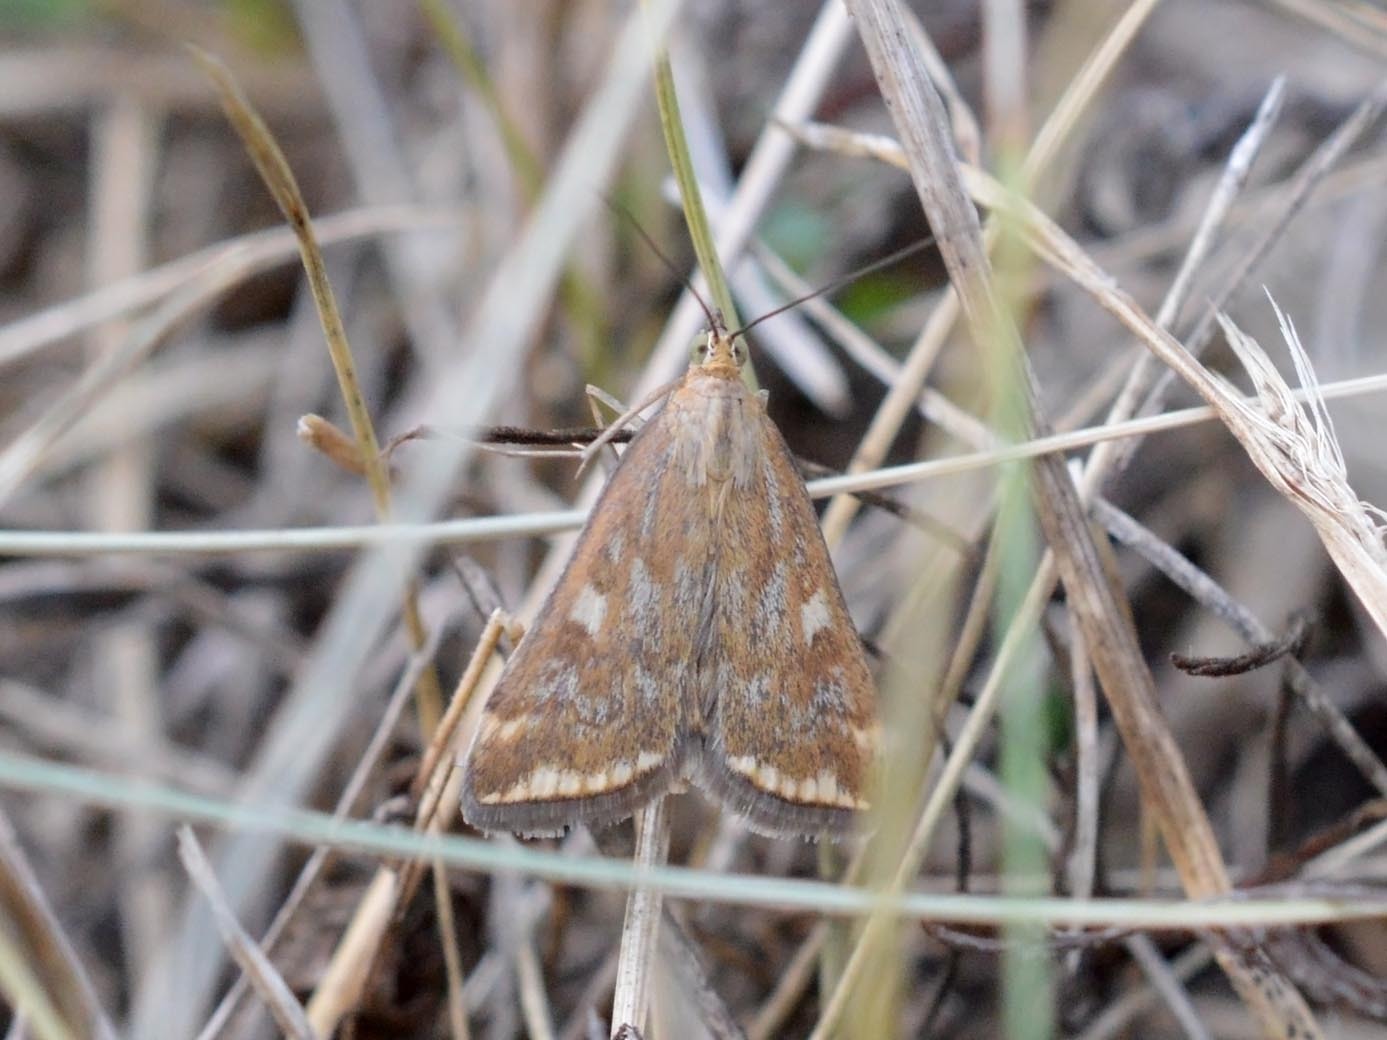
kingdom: Animalia
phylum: Arthropoda
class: Insecta
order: Lepidoptera
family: Crambidae
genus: Loxostege
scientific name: Loxostege sticticalis
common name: Crambid moth
